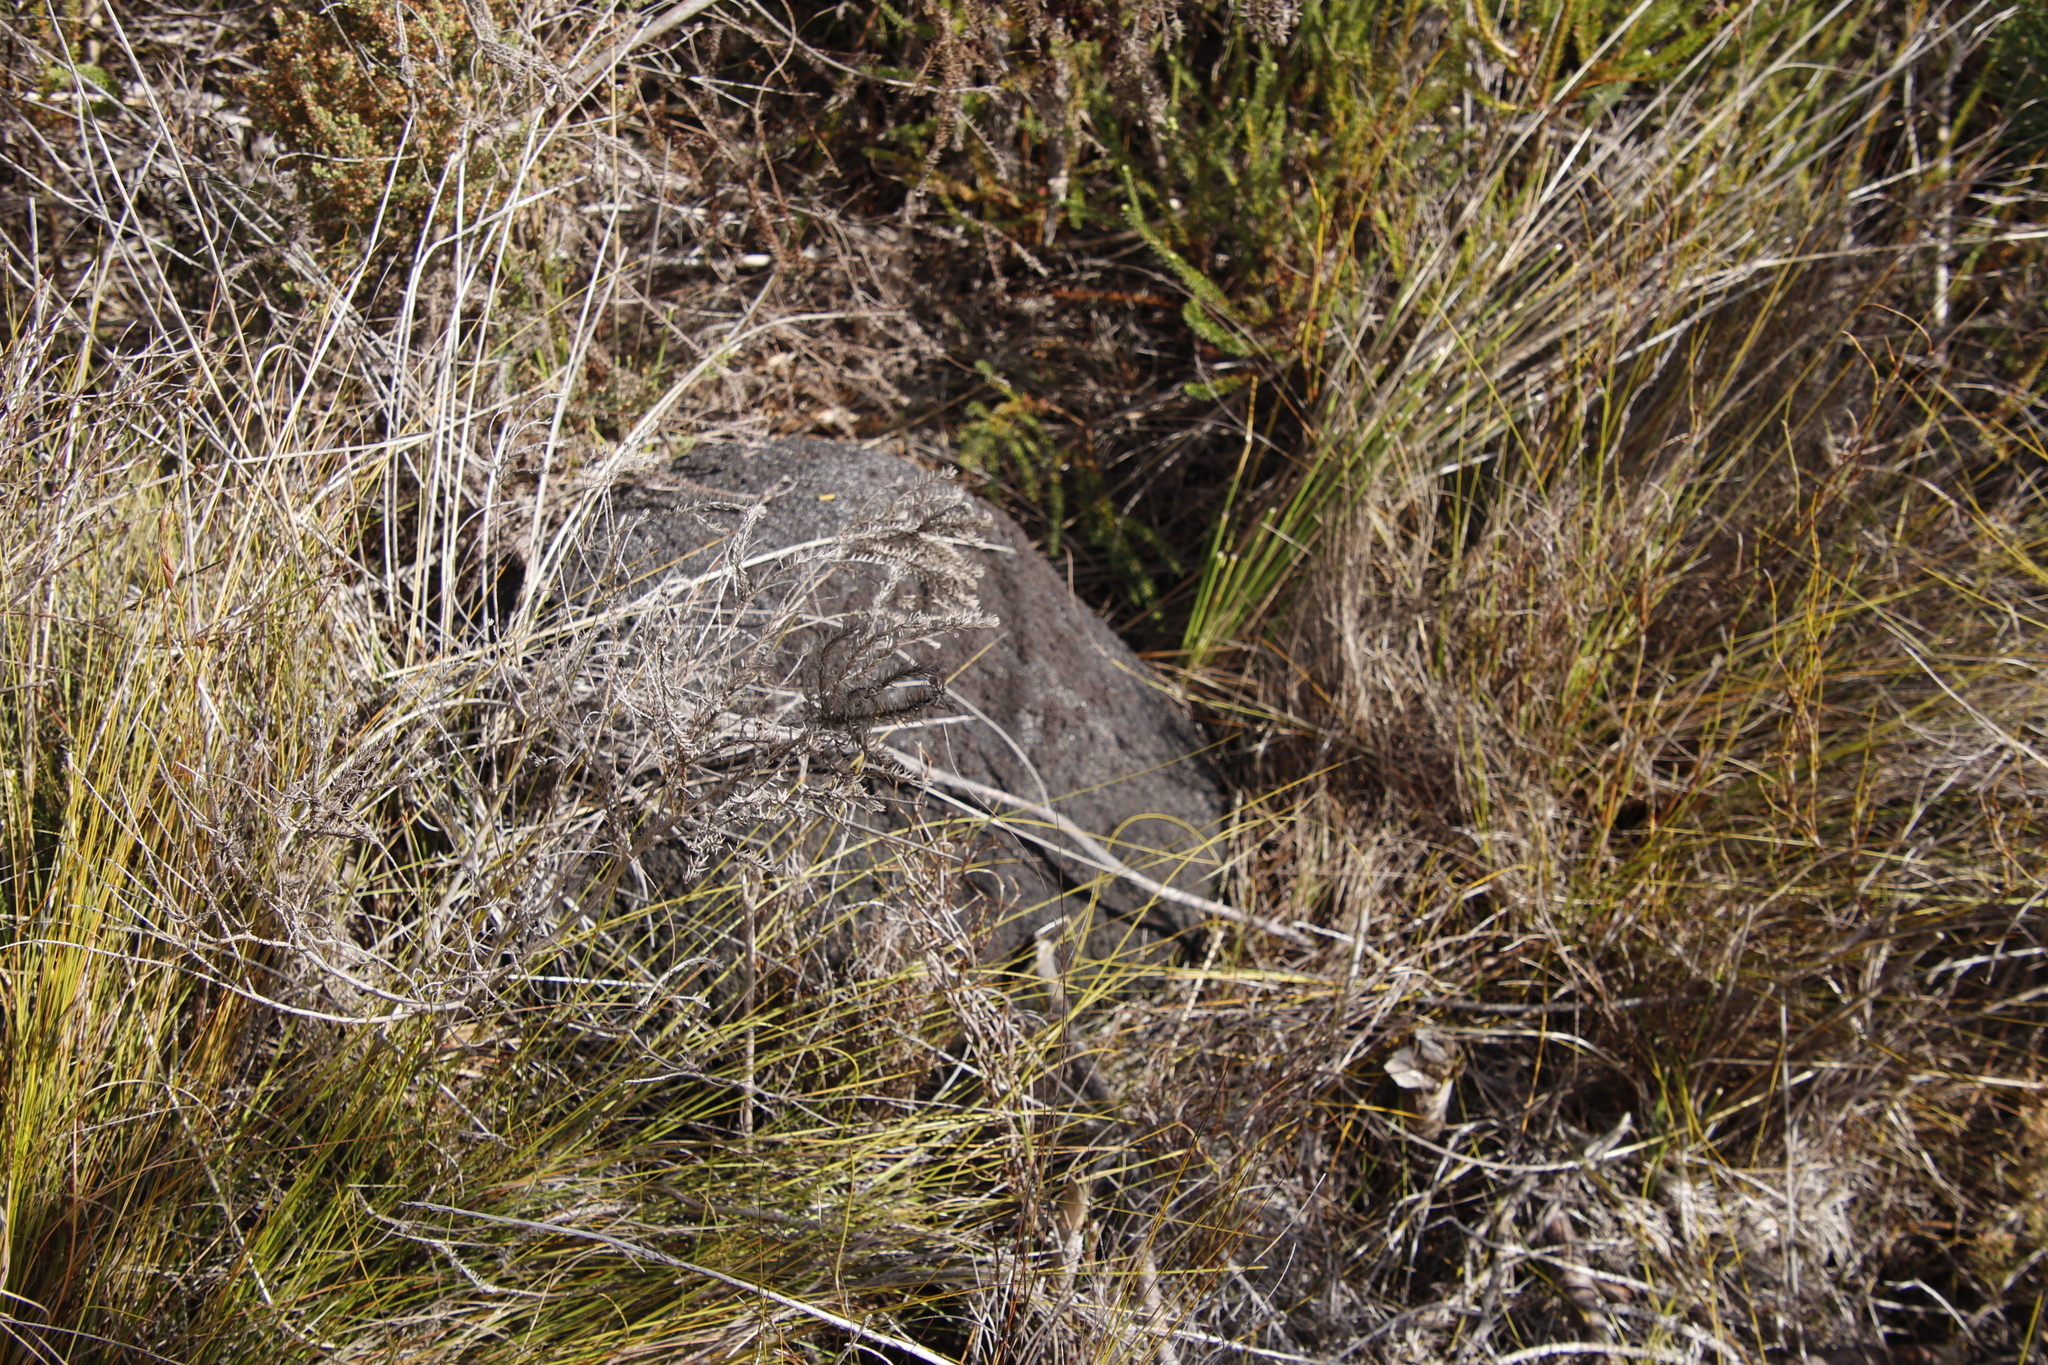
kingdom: Animalia
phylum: Arthropoda
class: Insecta
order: Blattodea
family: Termitidae
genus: Amitermes
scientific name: Amitermes hastatus
